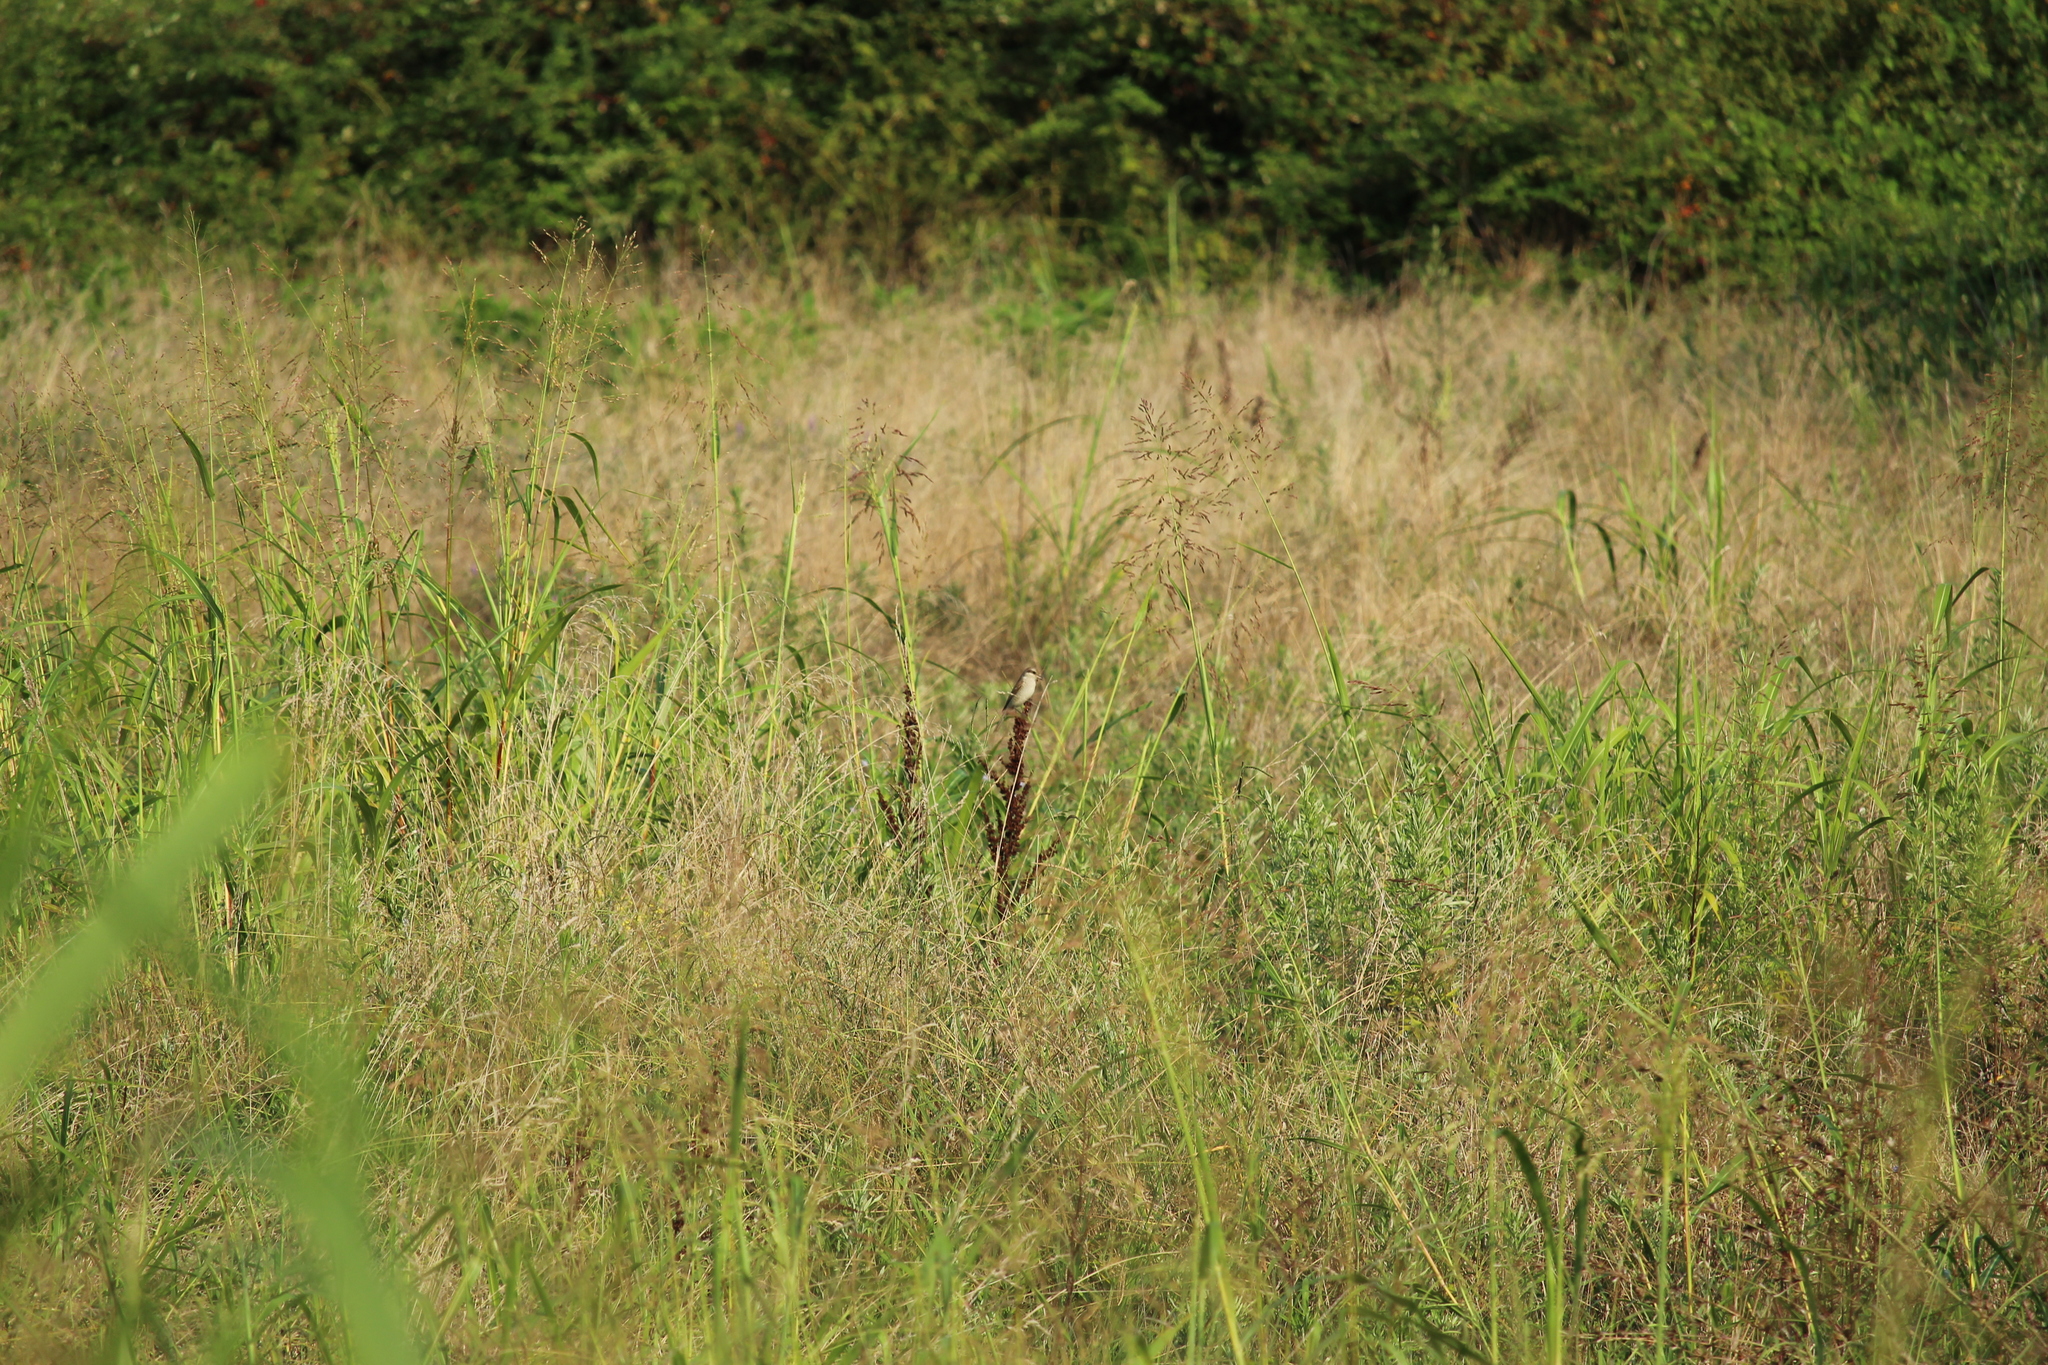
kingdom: Animalia
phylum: Chordata
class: Aves
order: Passeriformes
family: Laniidae
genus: Lanius
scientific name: Lanius collurio
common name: Red-backed shrike
